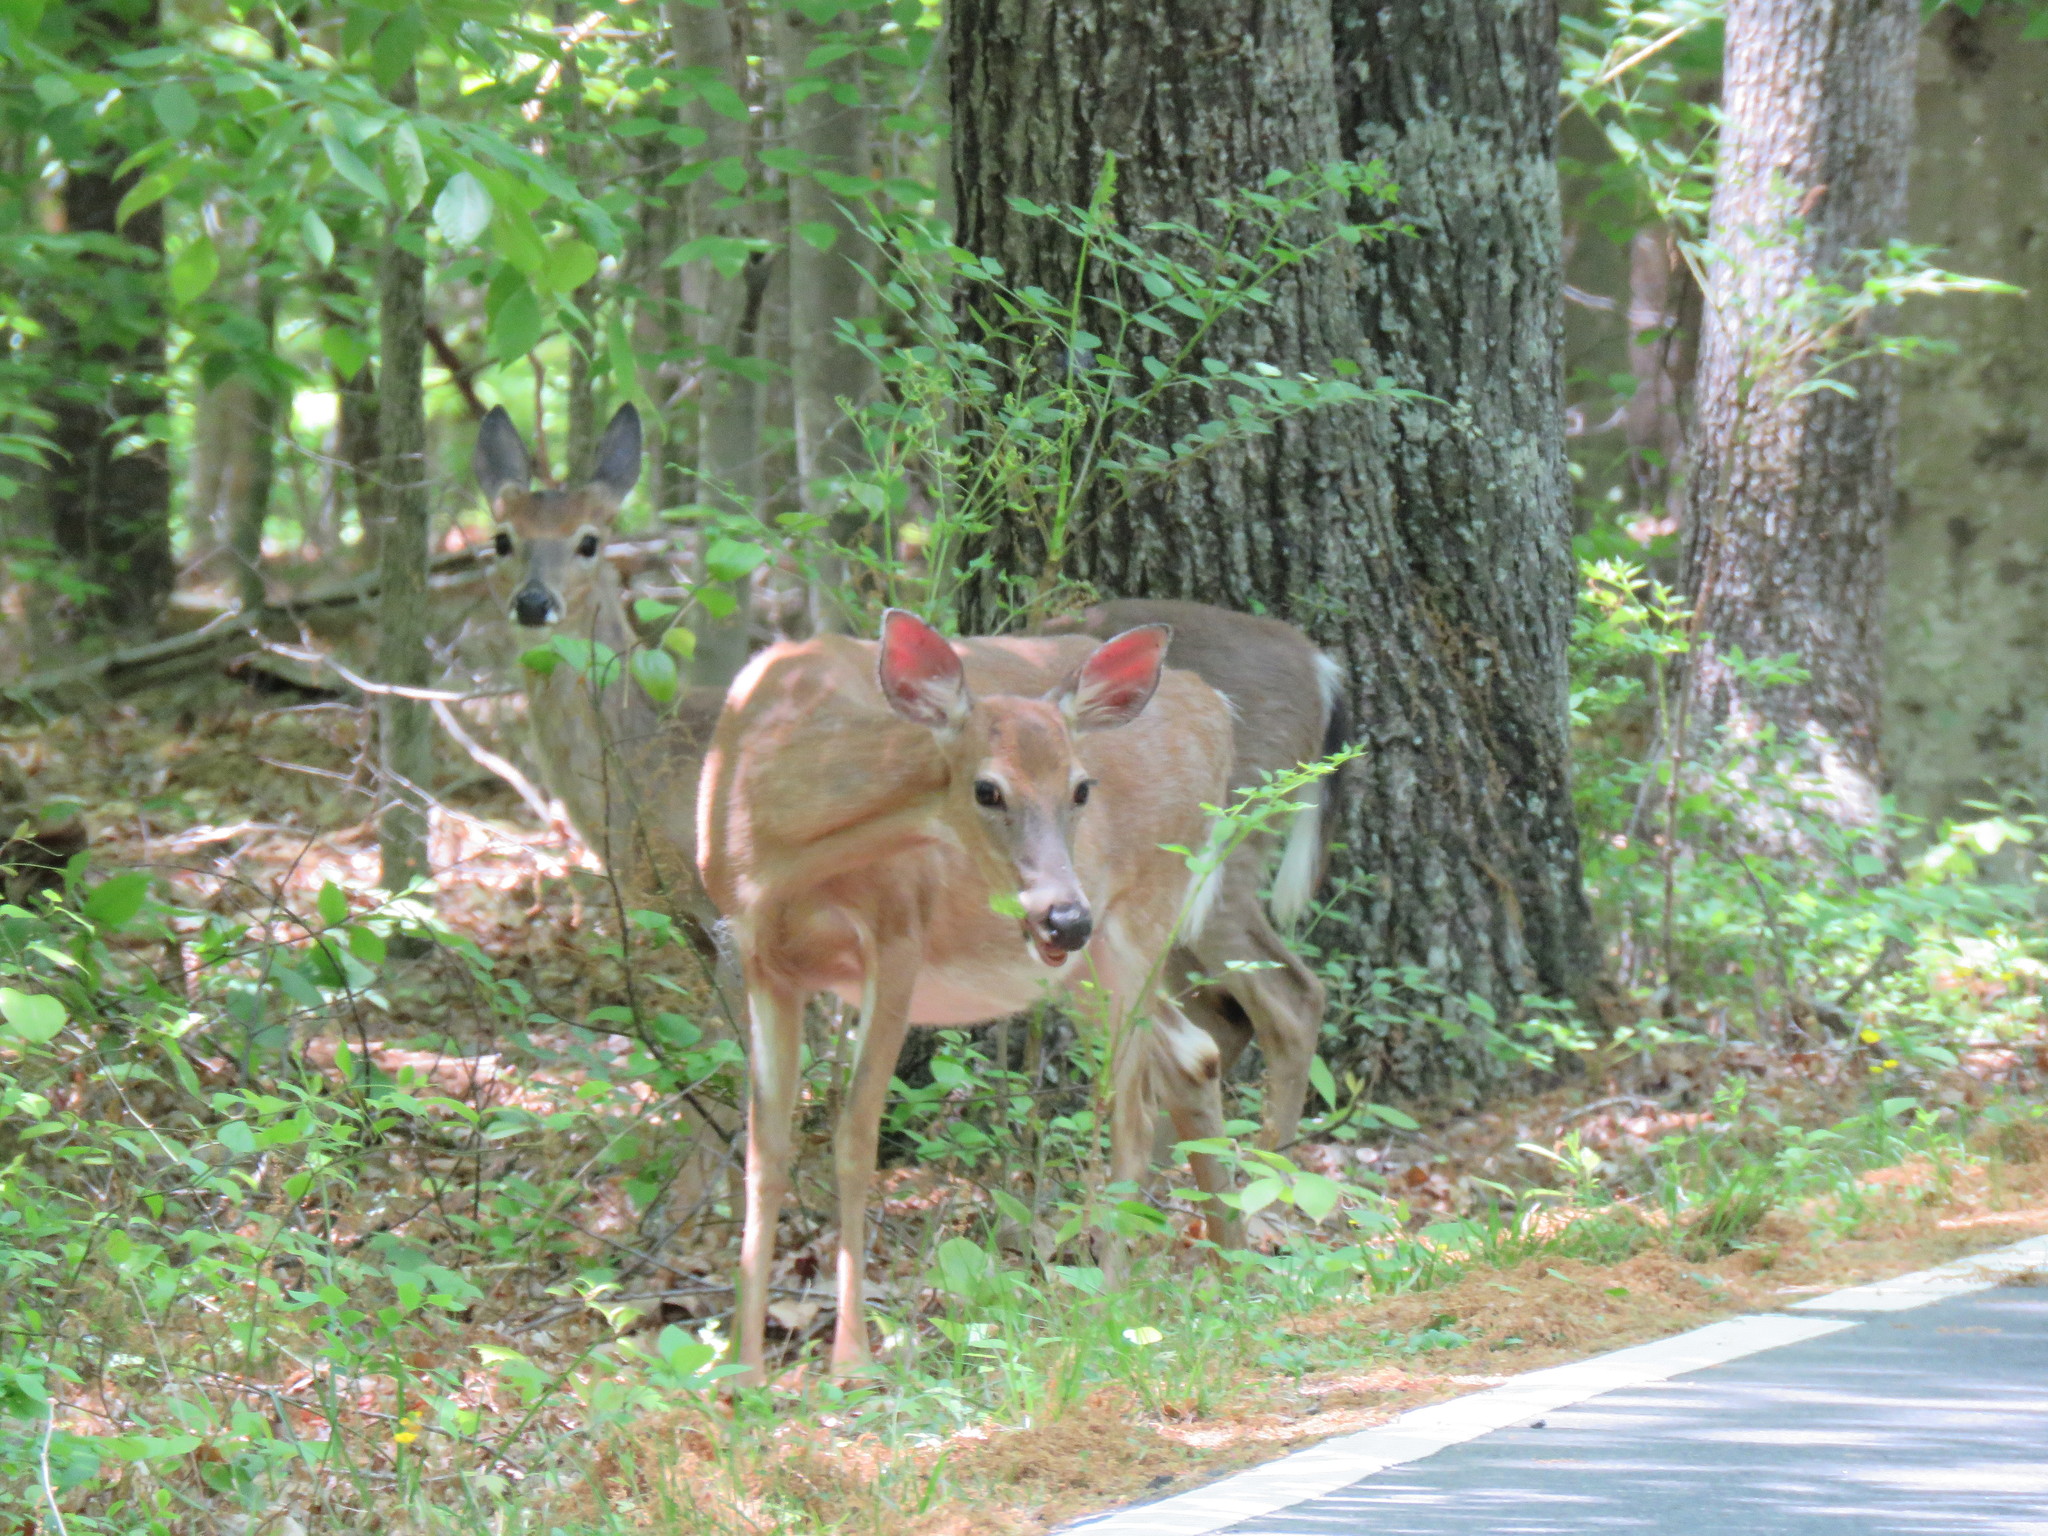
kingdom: Animalia
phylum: Chordata
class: Mammalia
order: Artiodactyla
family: Cervidae
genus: Odocoileus
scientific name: Odocoileus virginianus
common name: White-tailed deer
